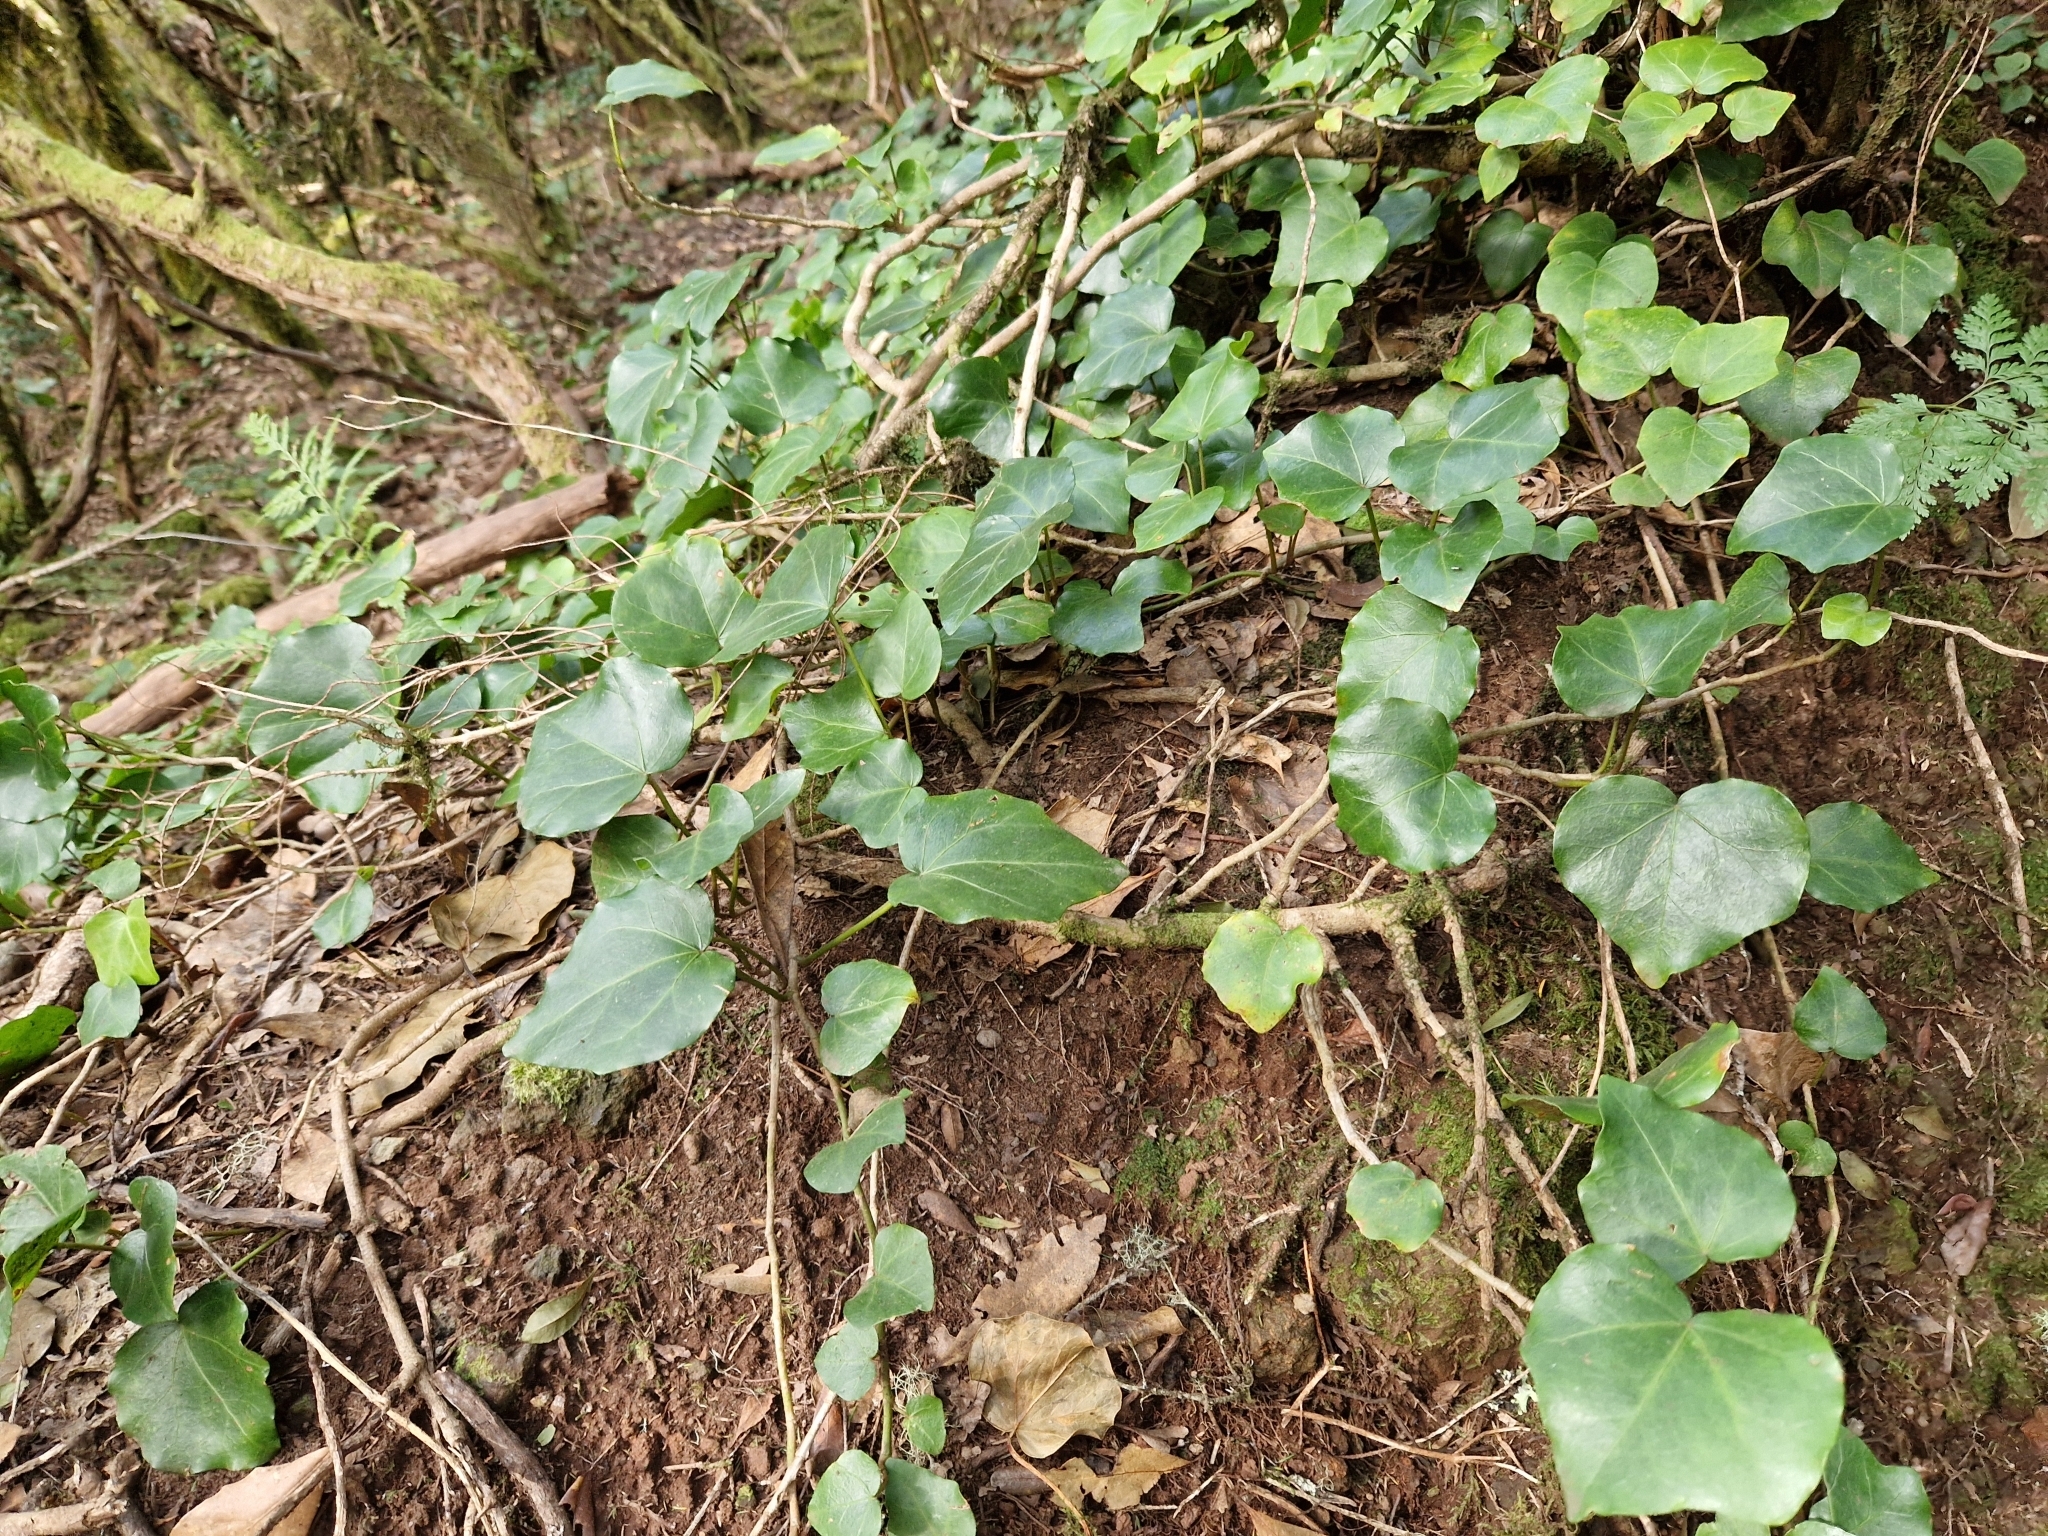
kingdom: Plantae
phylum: Tracheophyta
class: Magnoliopsida
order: Apiales
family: Araliaceae
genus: Hedera
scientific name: Hedera canariensis
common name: Madeira ivy
